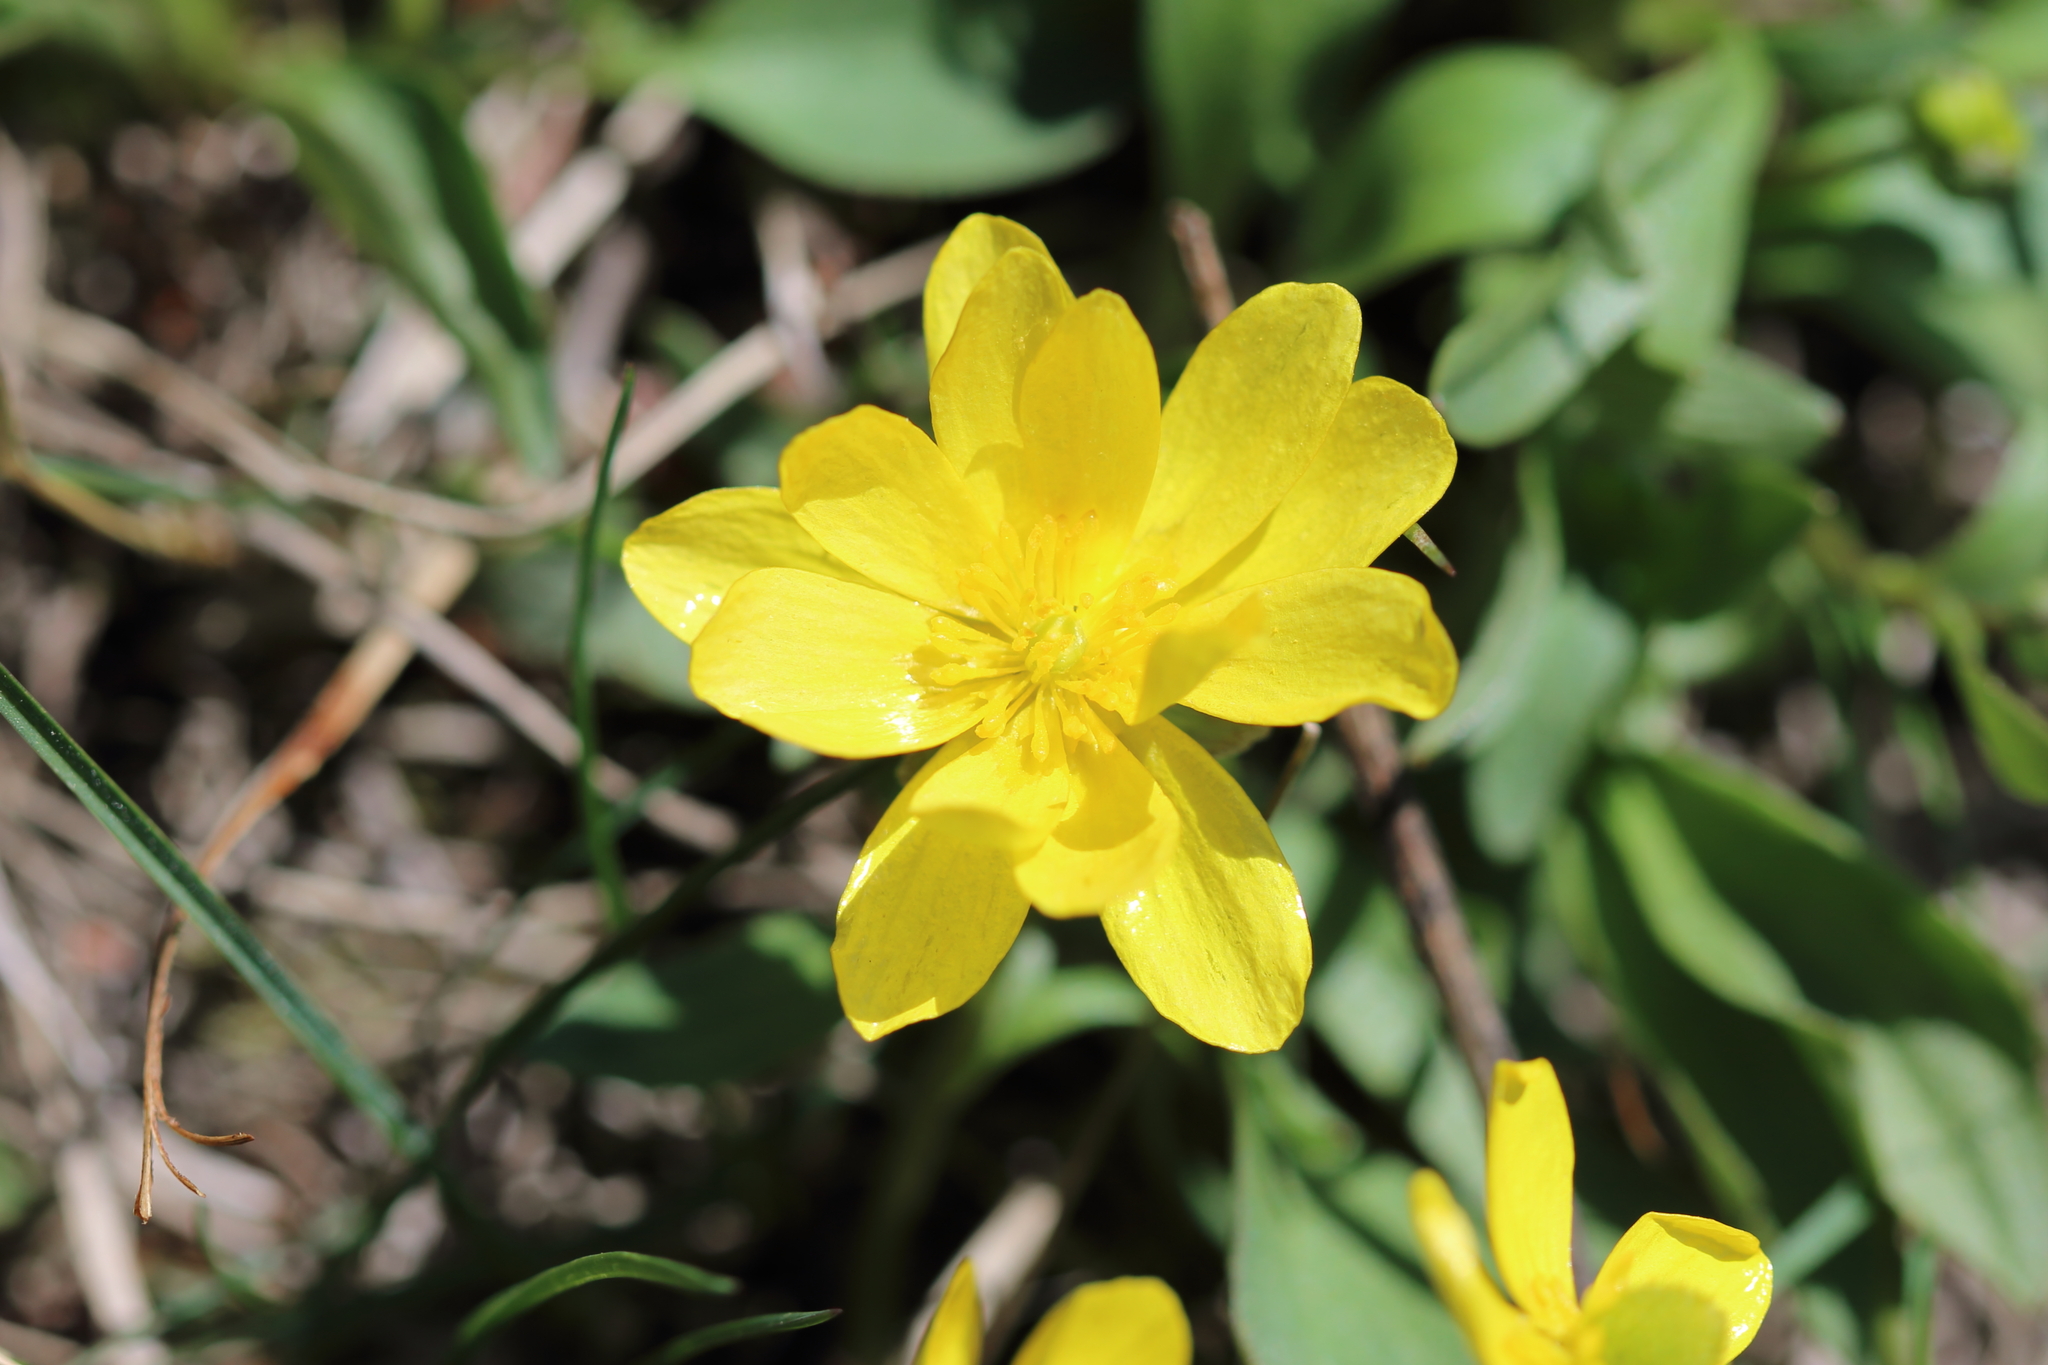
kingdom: Plantae
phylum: Tracheophyta
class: Magnoliopsida
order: Ranunculales
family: Ranunculaceae
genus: Ranunculus
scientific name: Ranunculus glaberrimus
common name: Sagebrush buttercup
